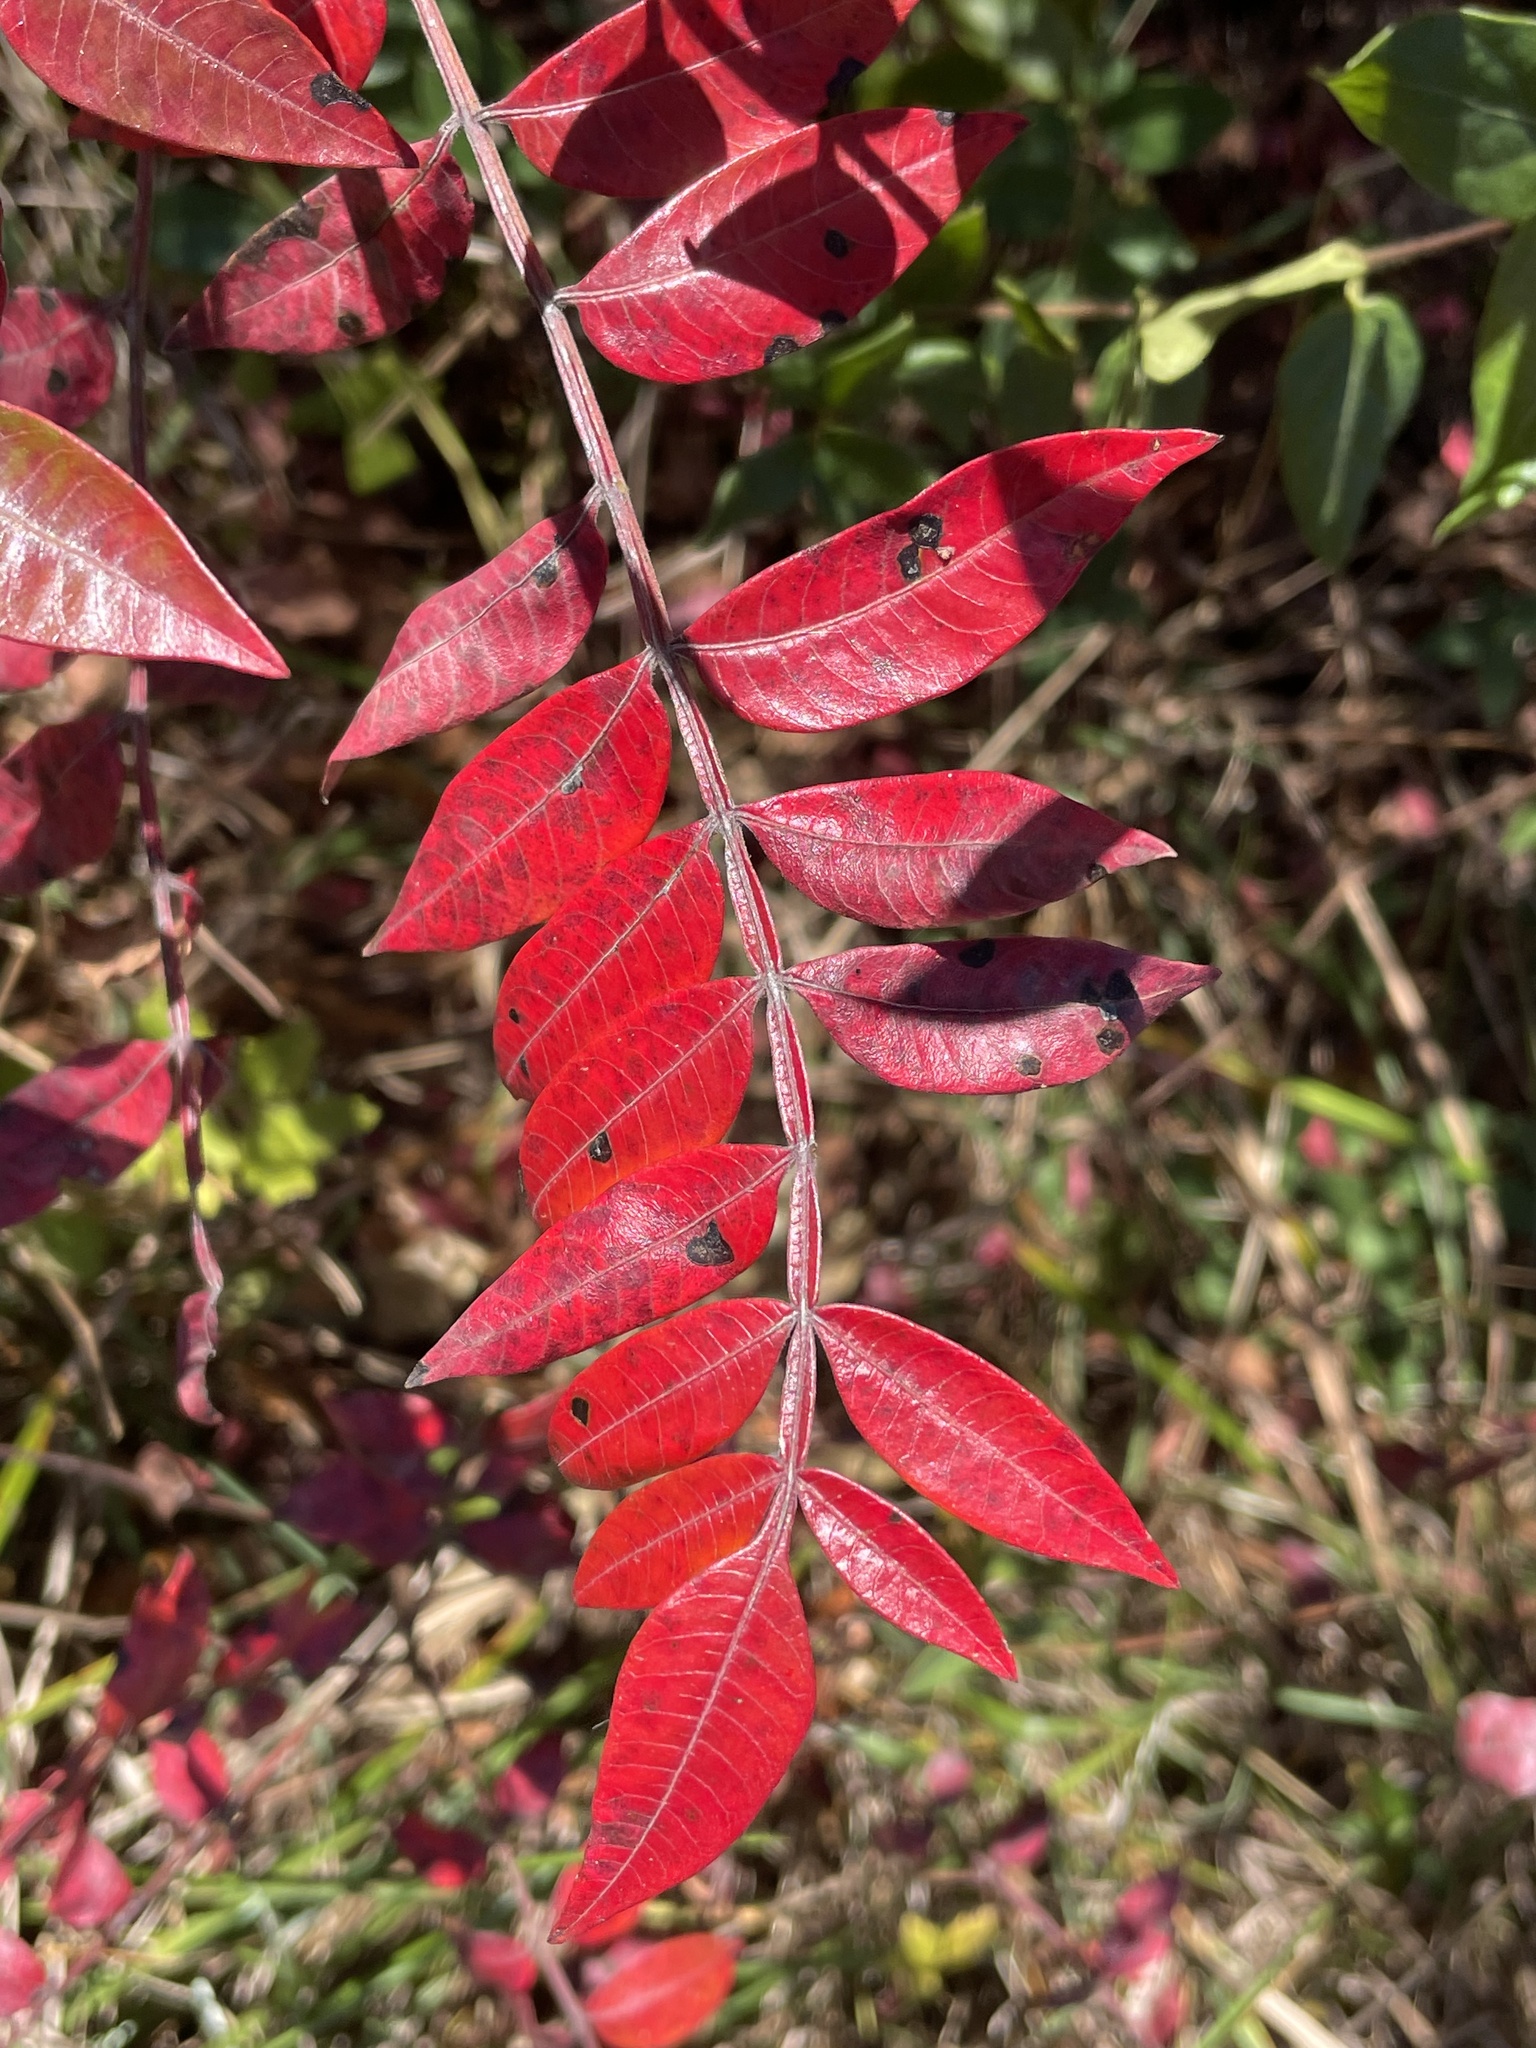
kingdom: Plantae
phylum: Tracheophyta
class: Magnoliopsida
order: Sapindales
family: Anacardiaceae
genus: Rhus
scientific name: Rhus copallina
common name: Shining sumac
